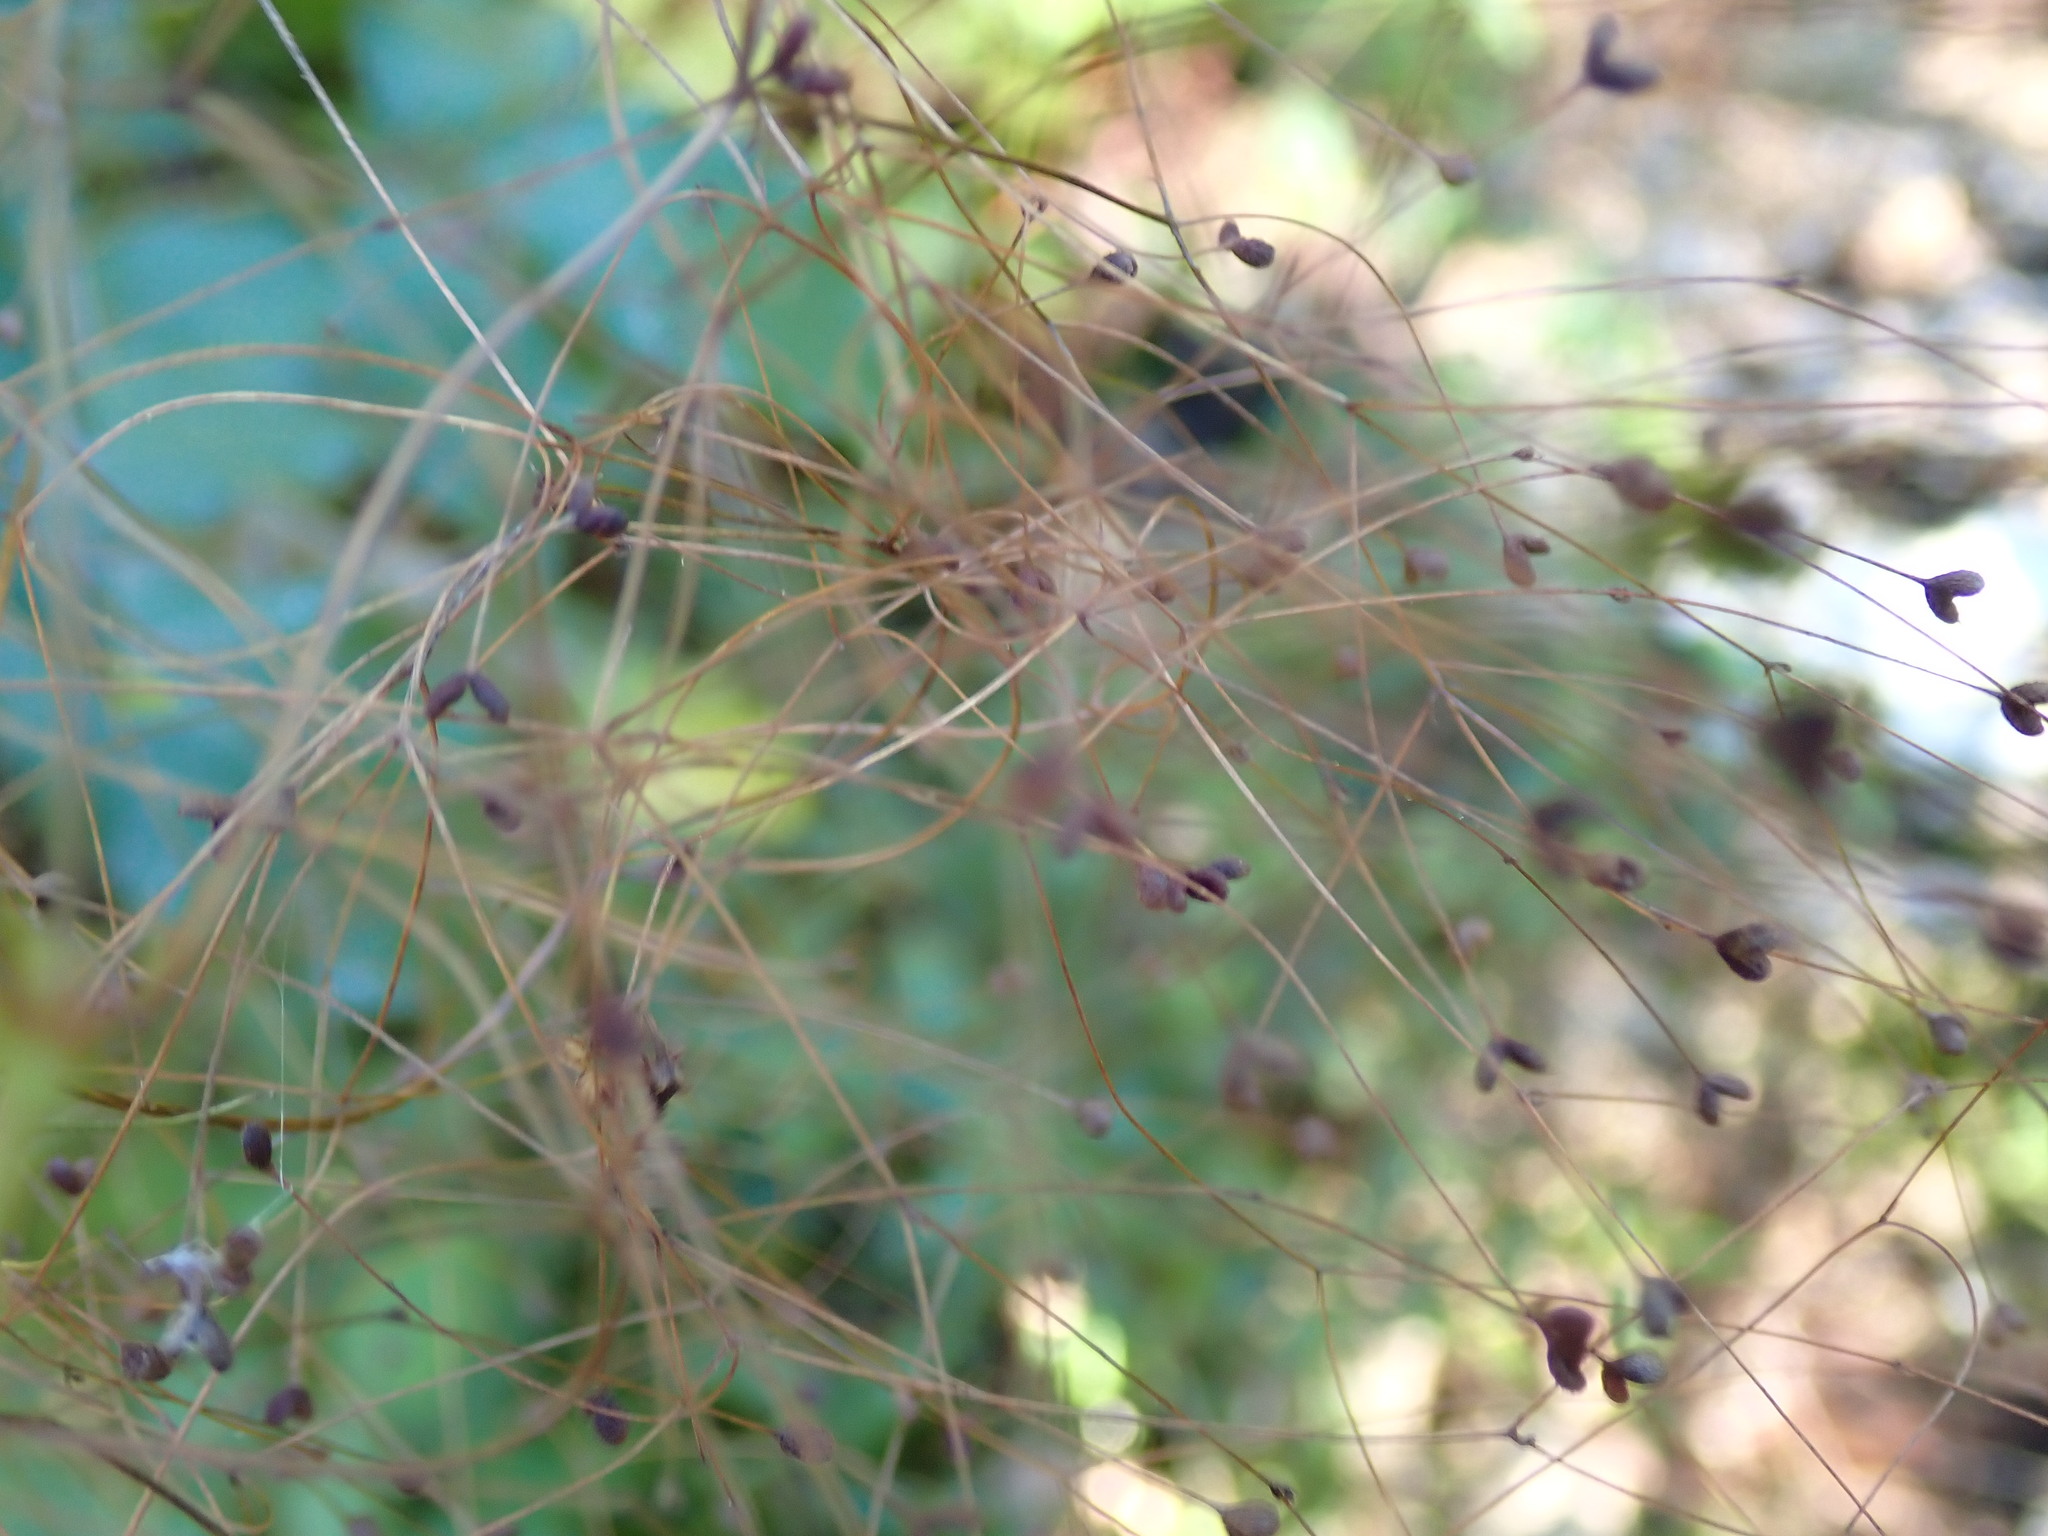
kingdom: Plantae
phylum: Tracheophyta
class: Magnoliopsida
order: Gentianales
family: Rubiaceae
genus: Galopina
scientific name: Galopina circaeoides
